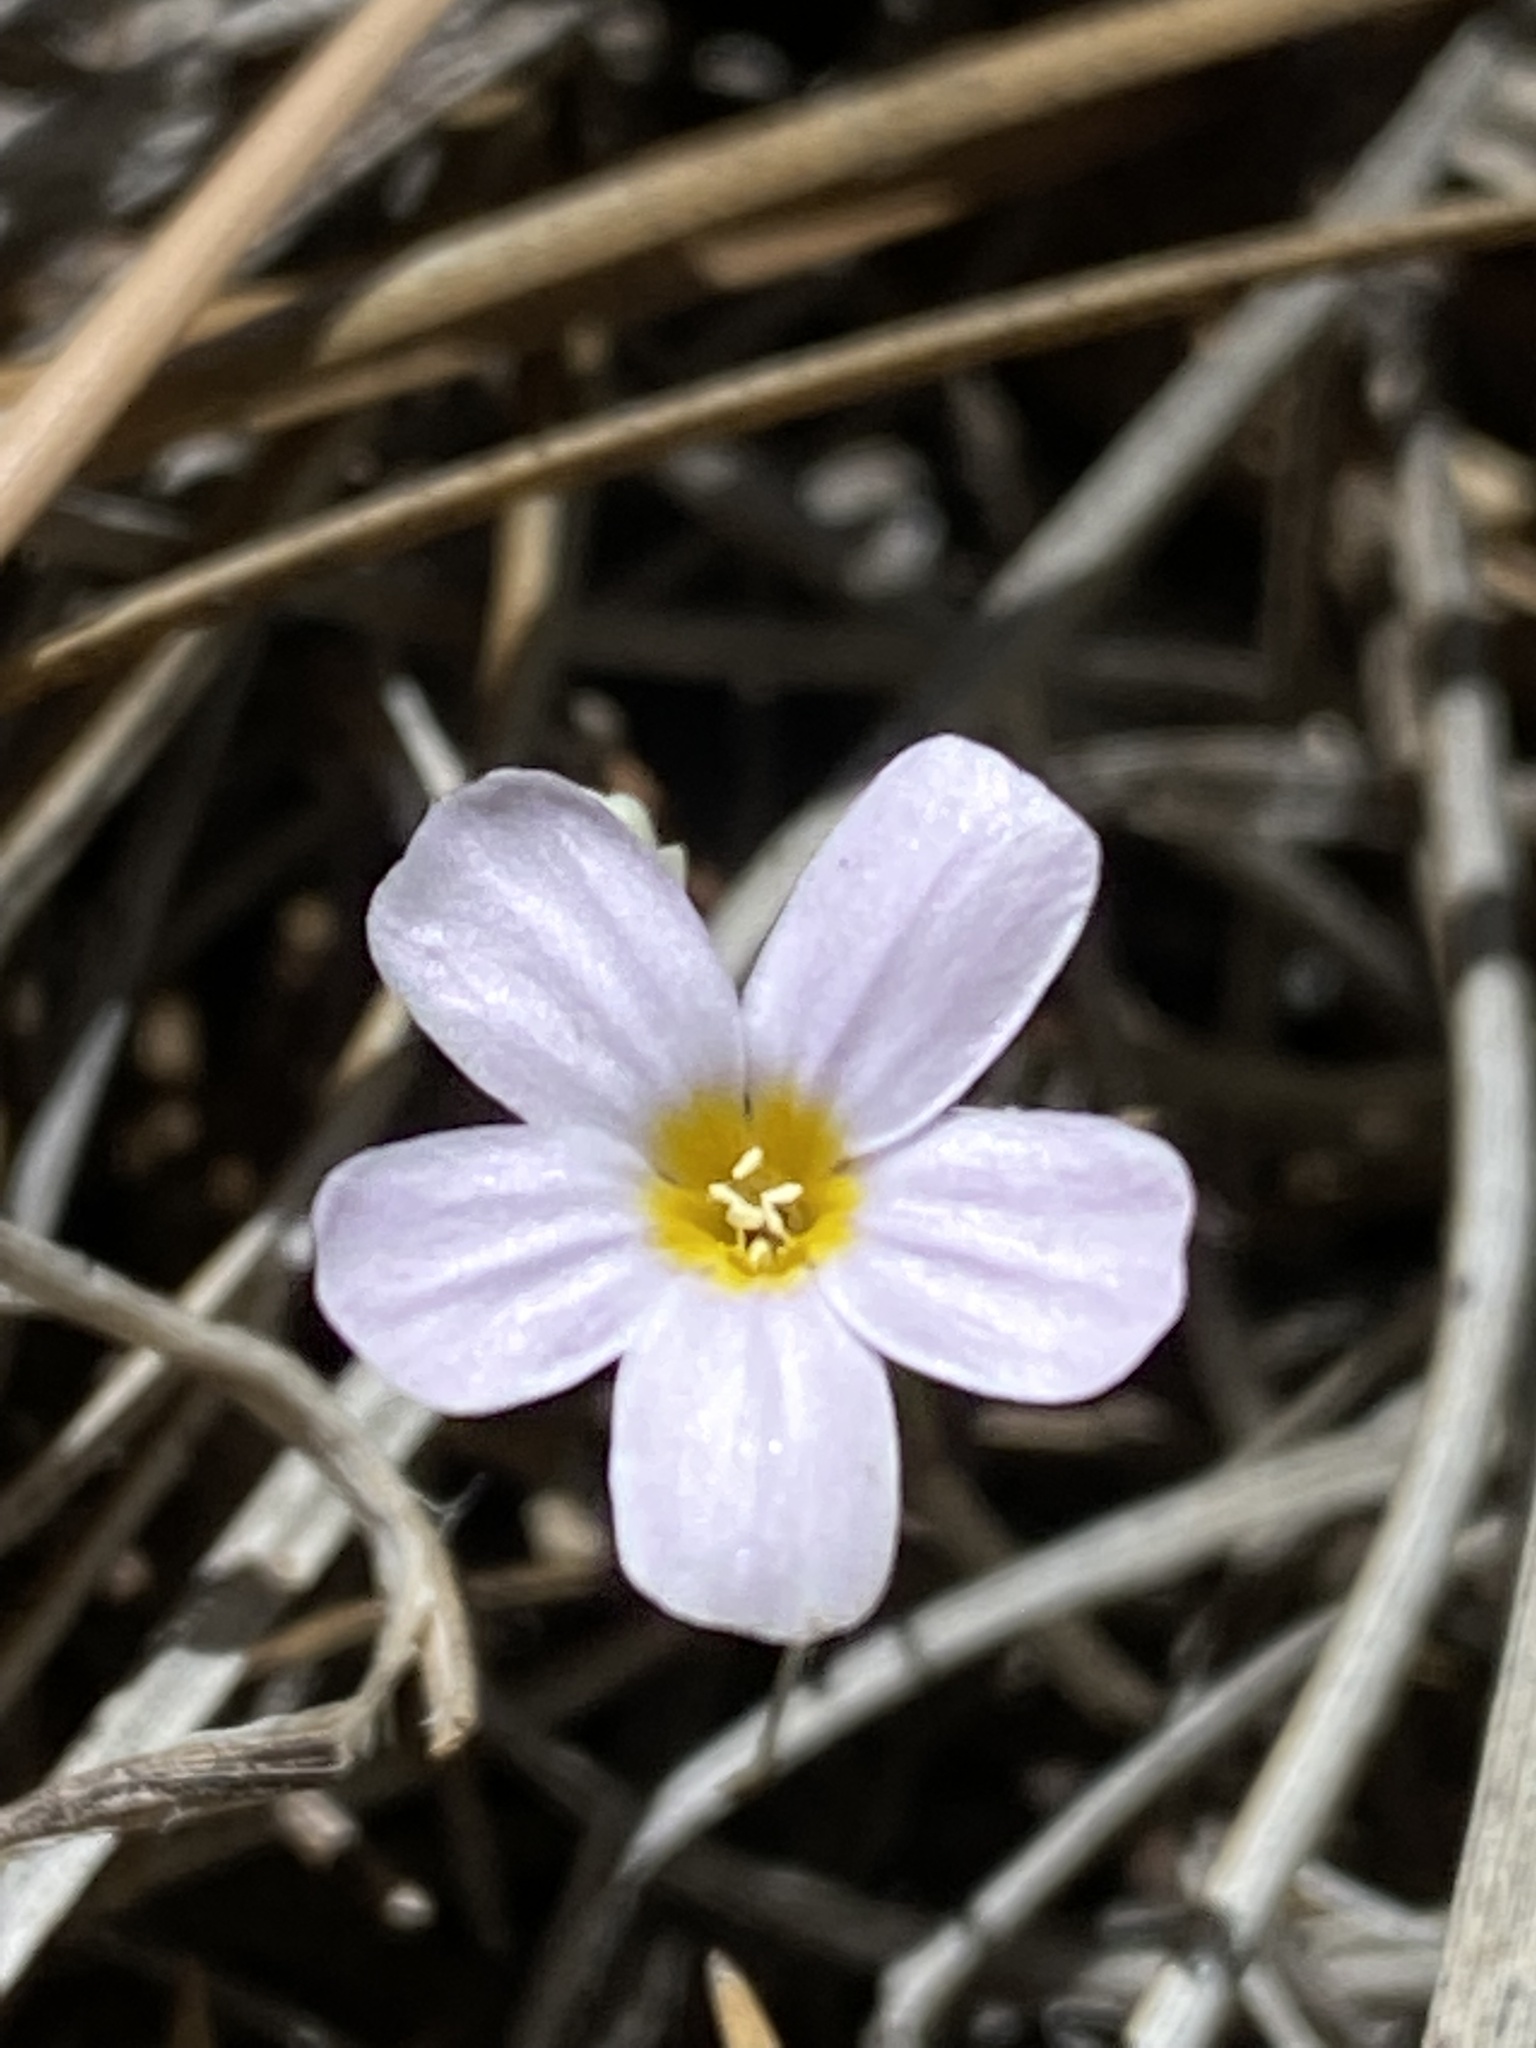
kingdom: Plantae
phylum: Tracheophyta
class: Magnoliopsida
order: Ericales
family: Polemoniaceae
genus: Leptosiphon
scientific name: Leptosiphon breviculus
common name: Mojave linanthus
